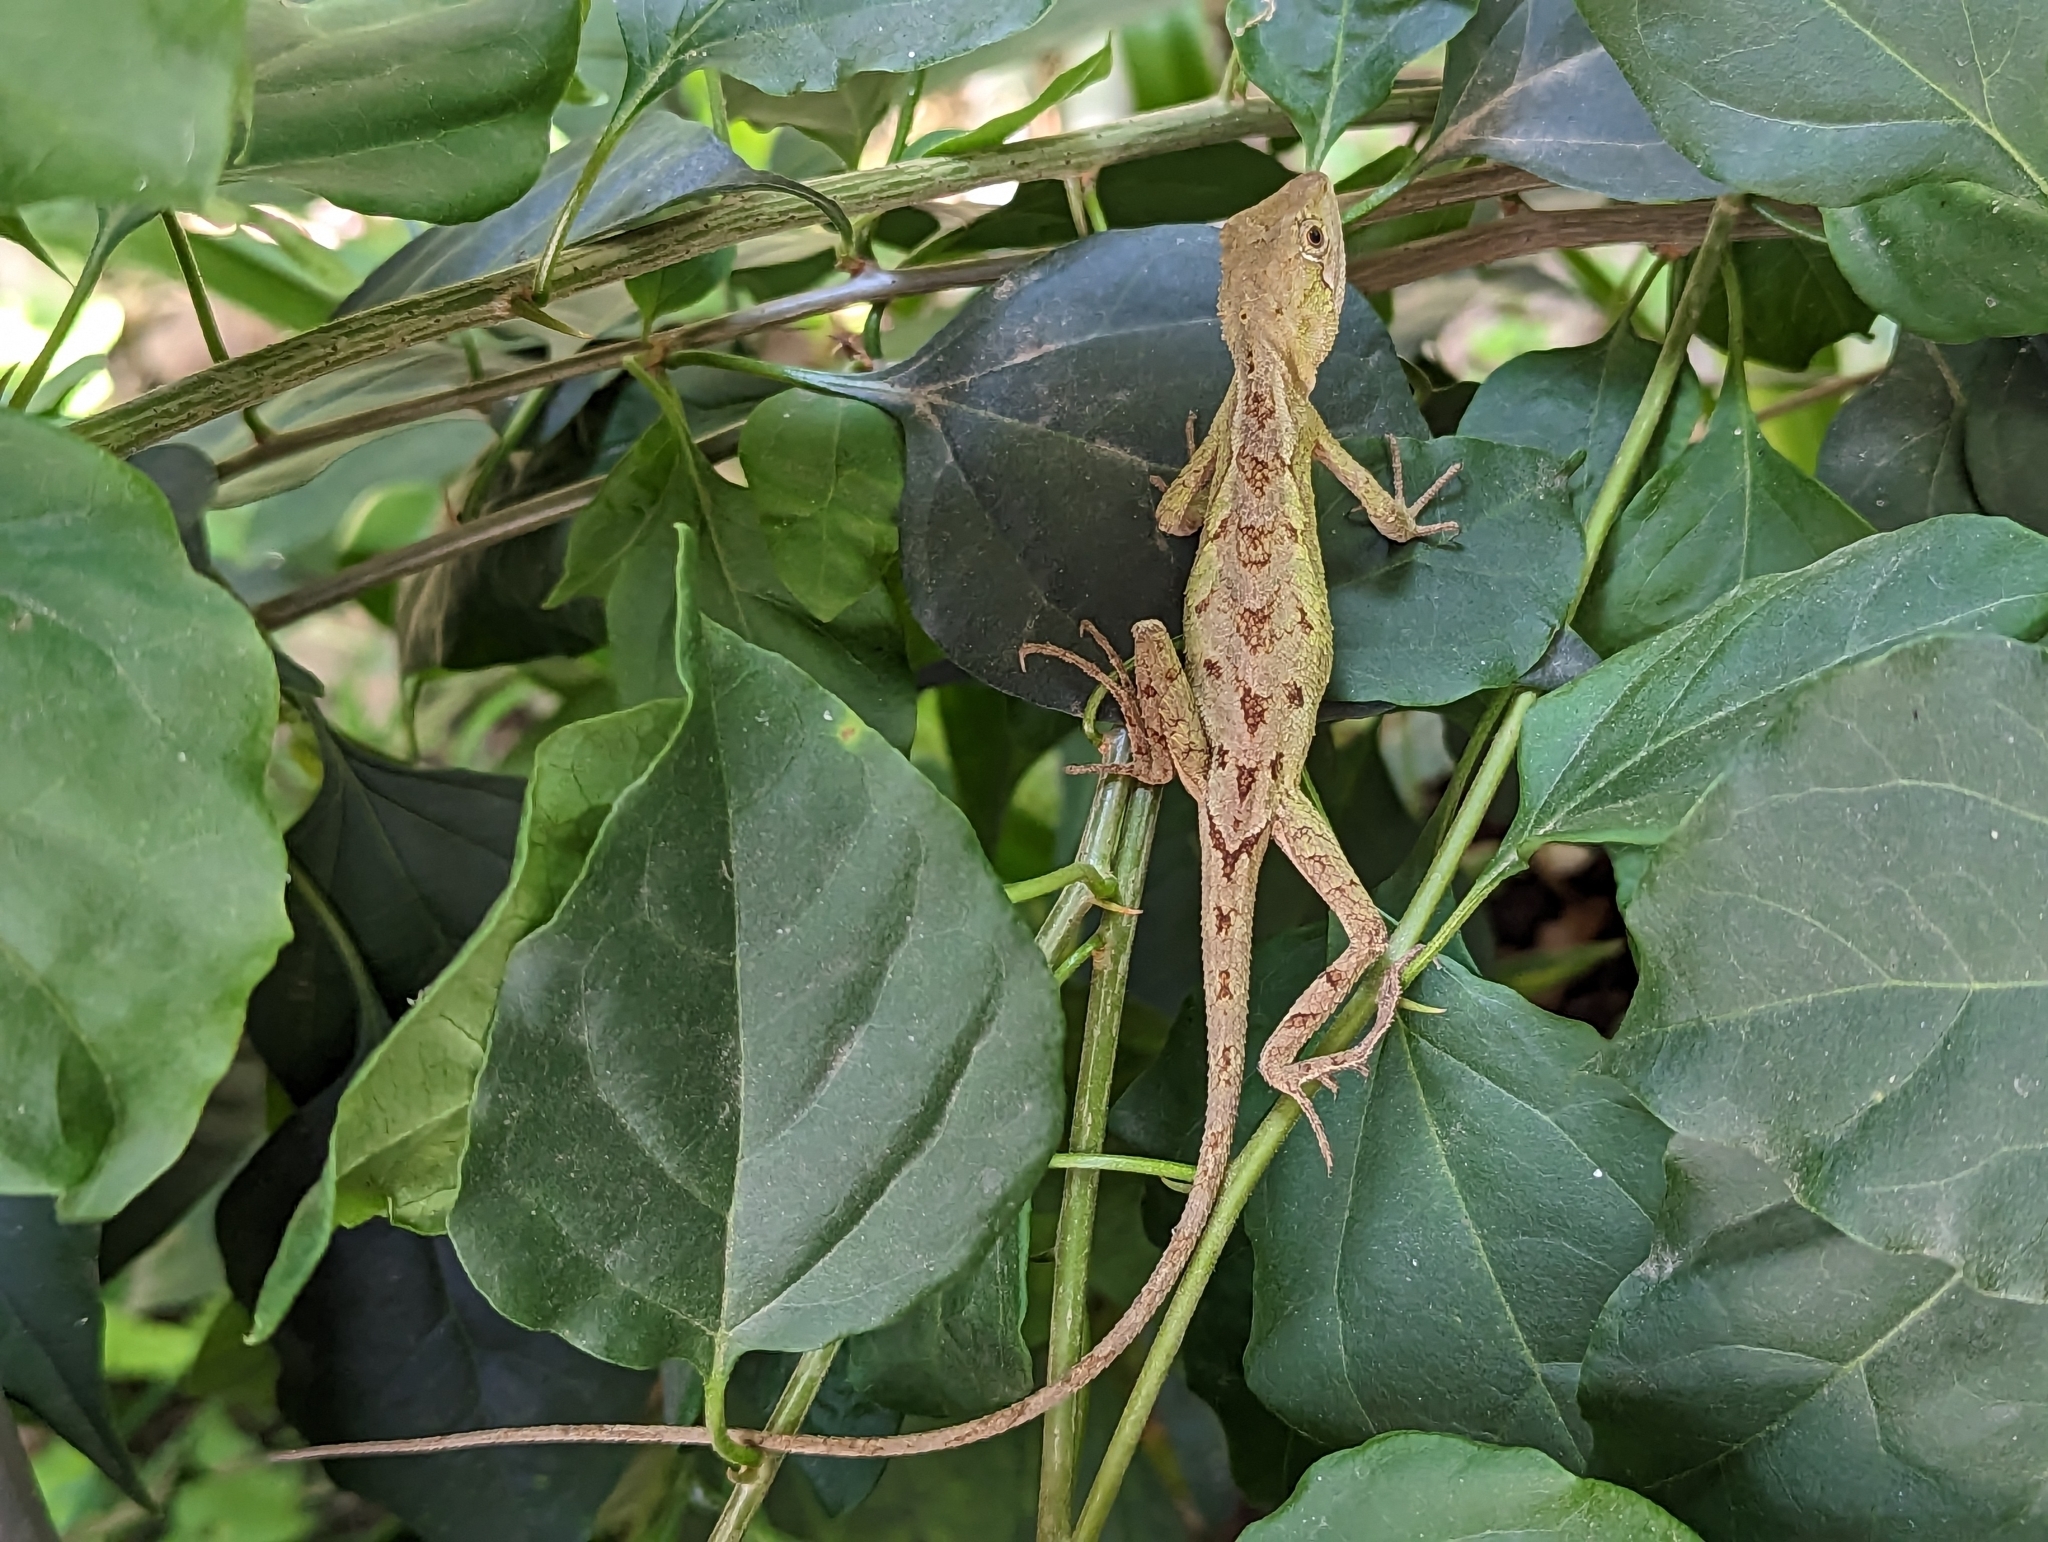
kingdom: Animalia
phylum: Chordata
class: Squamata
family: Agamidae
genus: Diploderma
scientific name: Diploderma swinhonis
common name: Taiwan japalure
